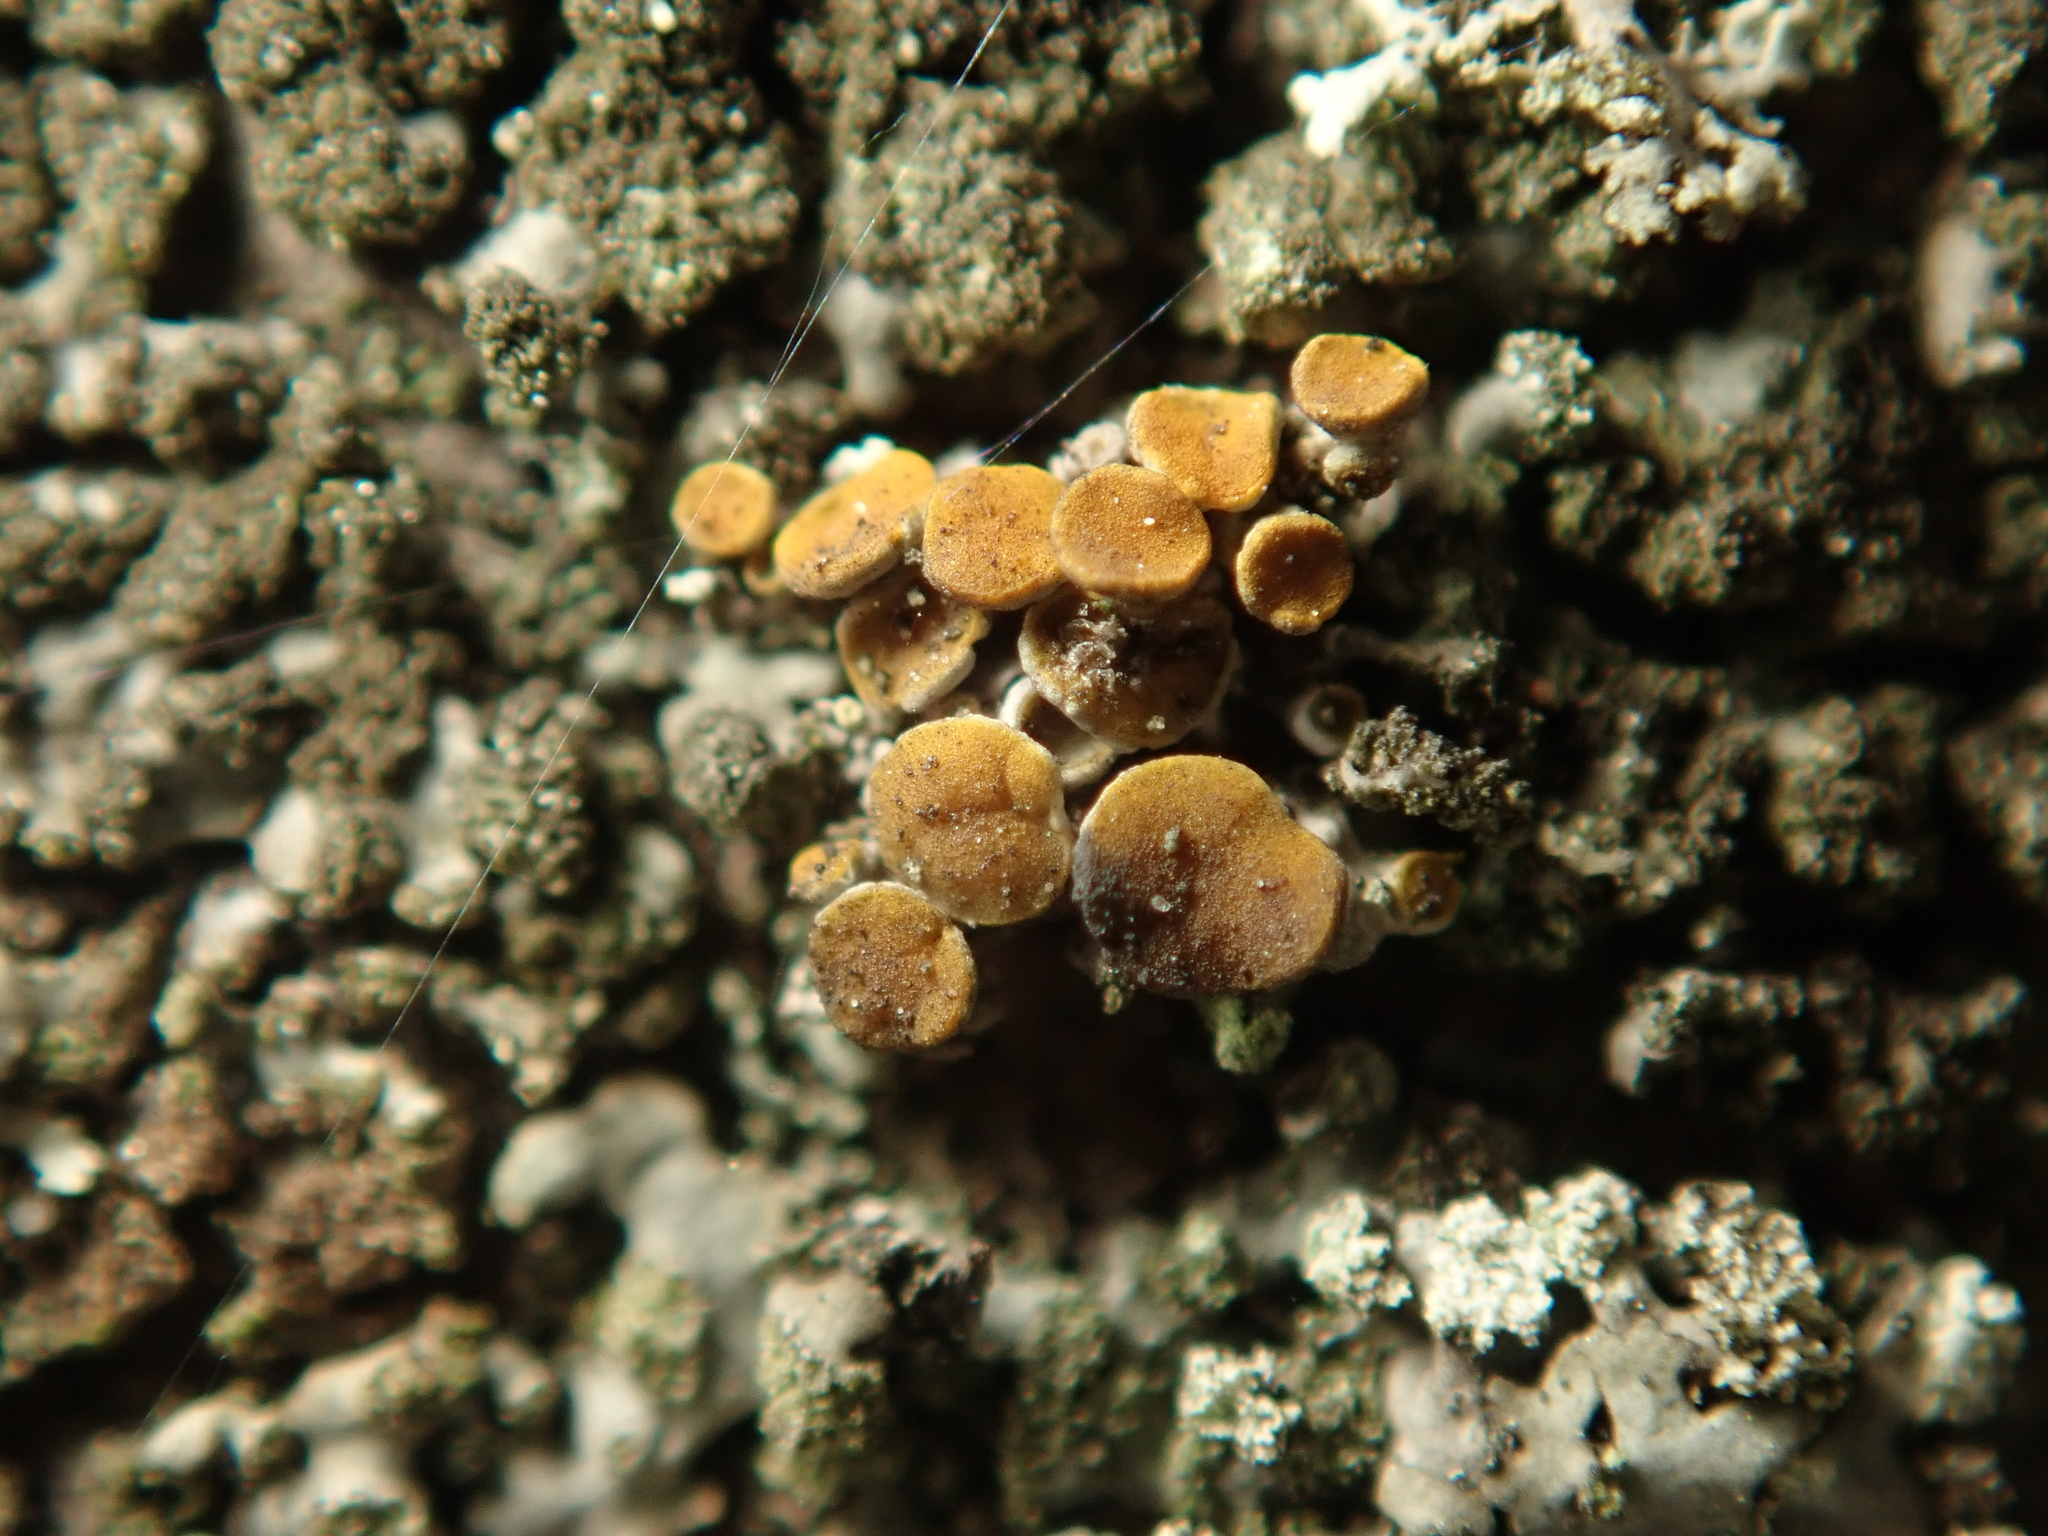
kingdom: Fungi
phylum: Ascomycota
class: Lecanoromycetes
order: Teloschistales
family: Teloschistaceae
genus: Polycauliona
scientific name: Polycauliona polycarpa
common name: Pin-cushion sunburst lichen
